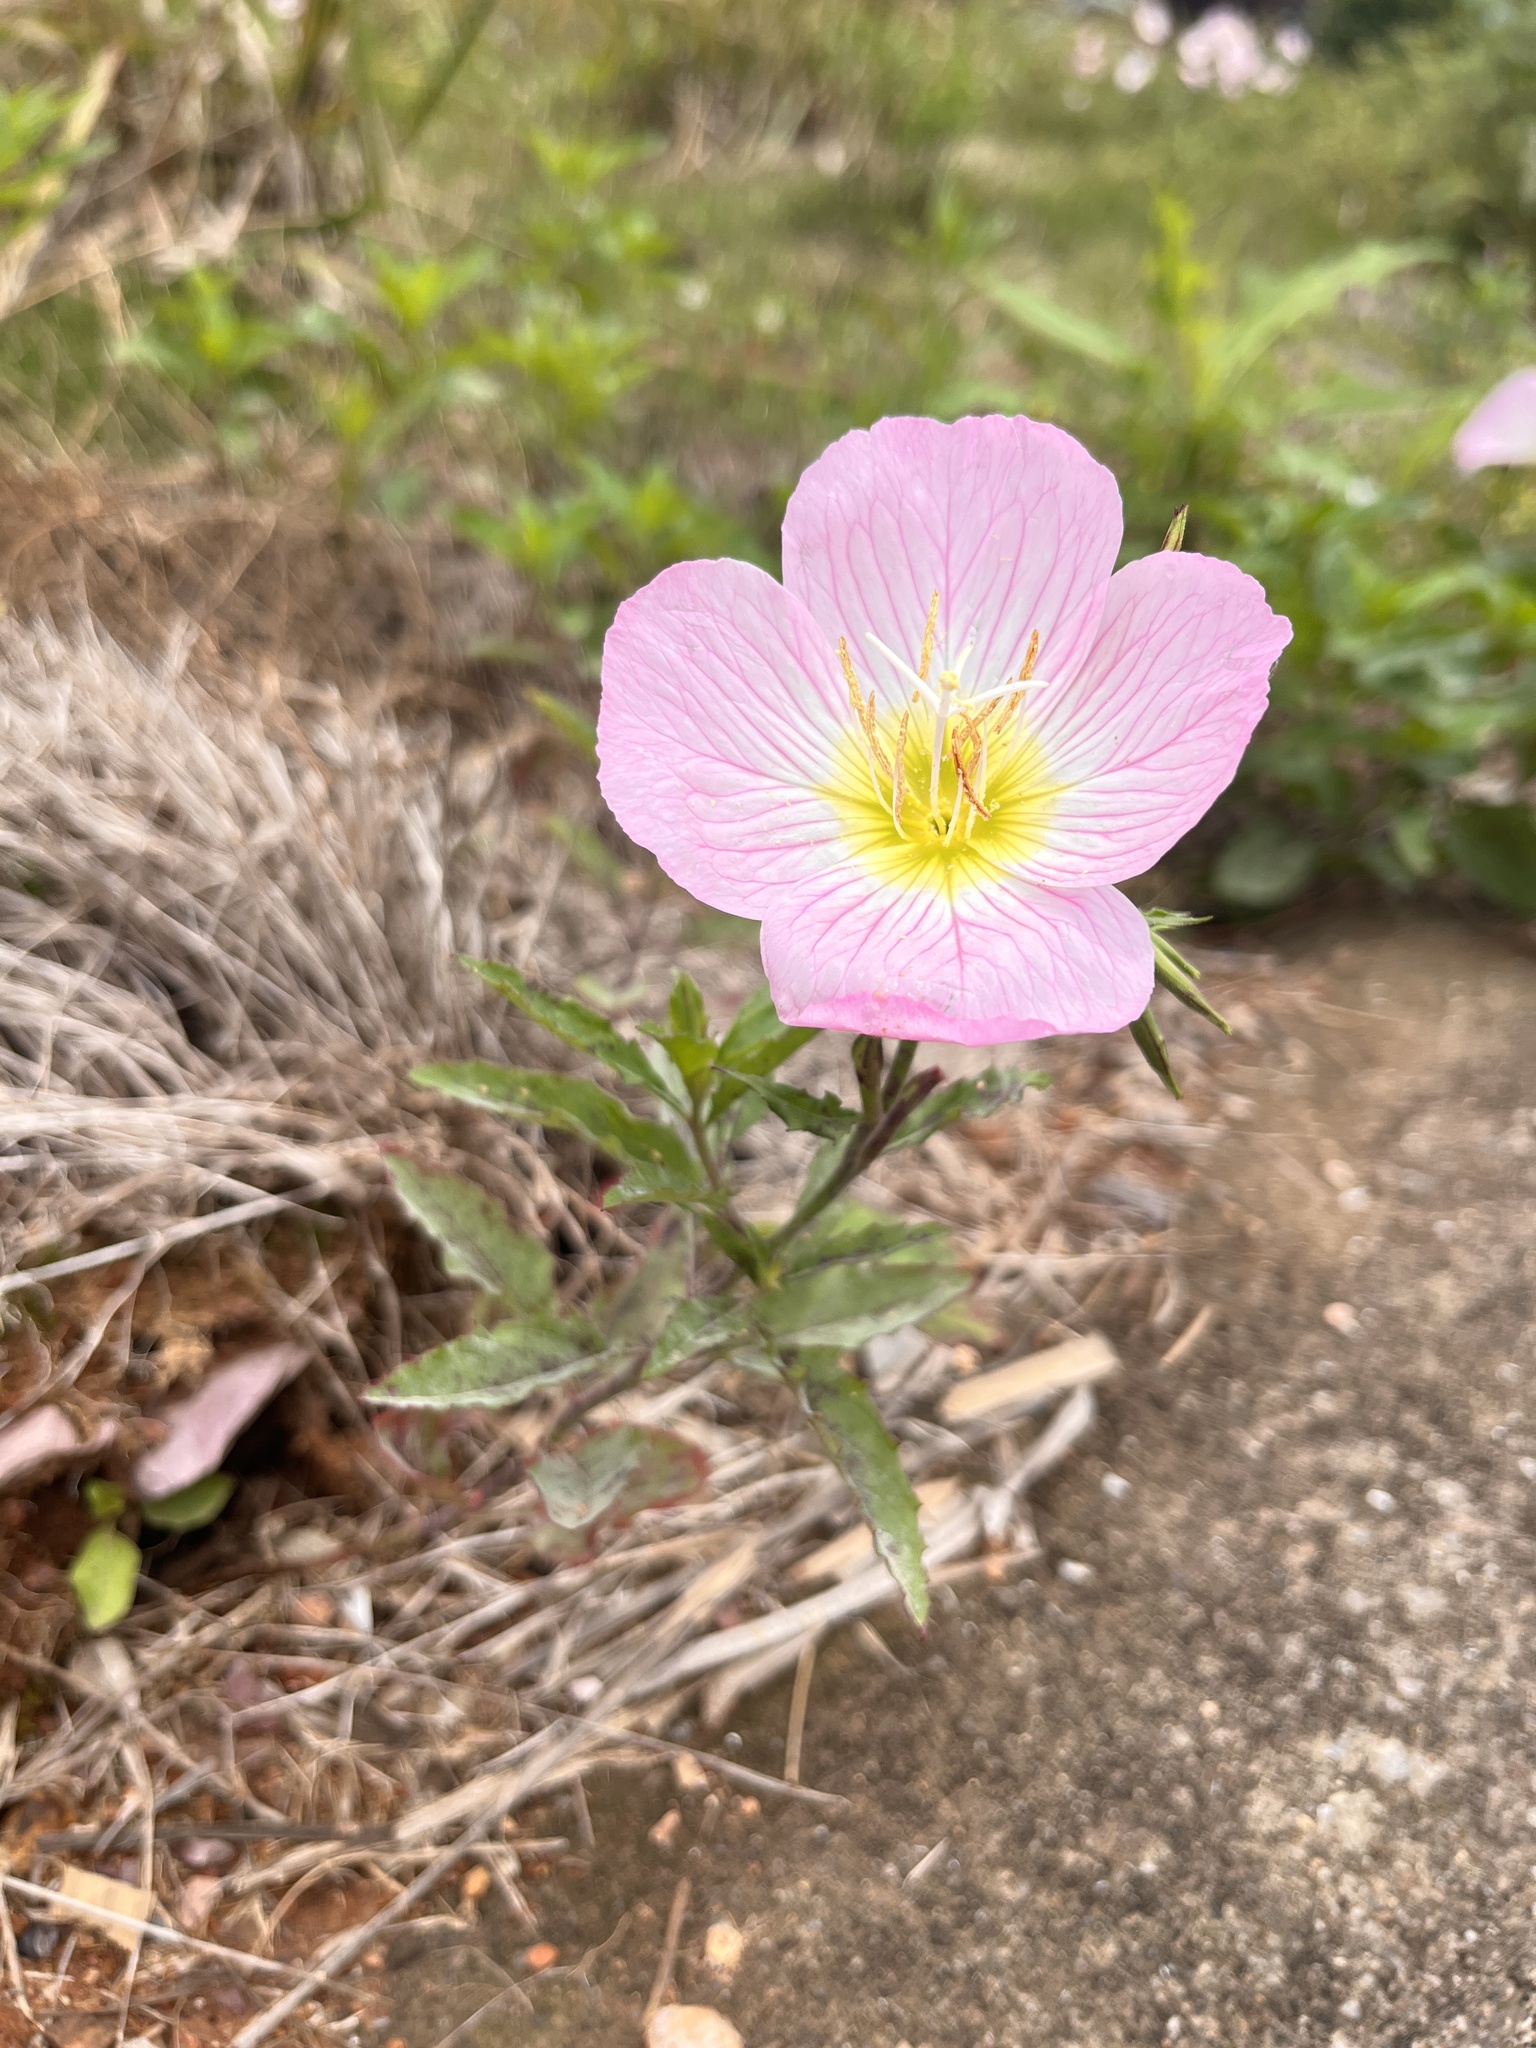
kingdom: Plantae
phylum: Tracheophyta
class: Magnoliopsida
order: Myrtales
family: Onagraceae
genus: Oenothera
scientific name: Oenothera speciosa
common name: White evening-primrose
